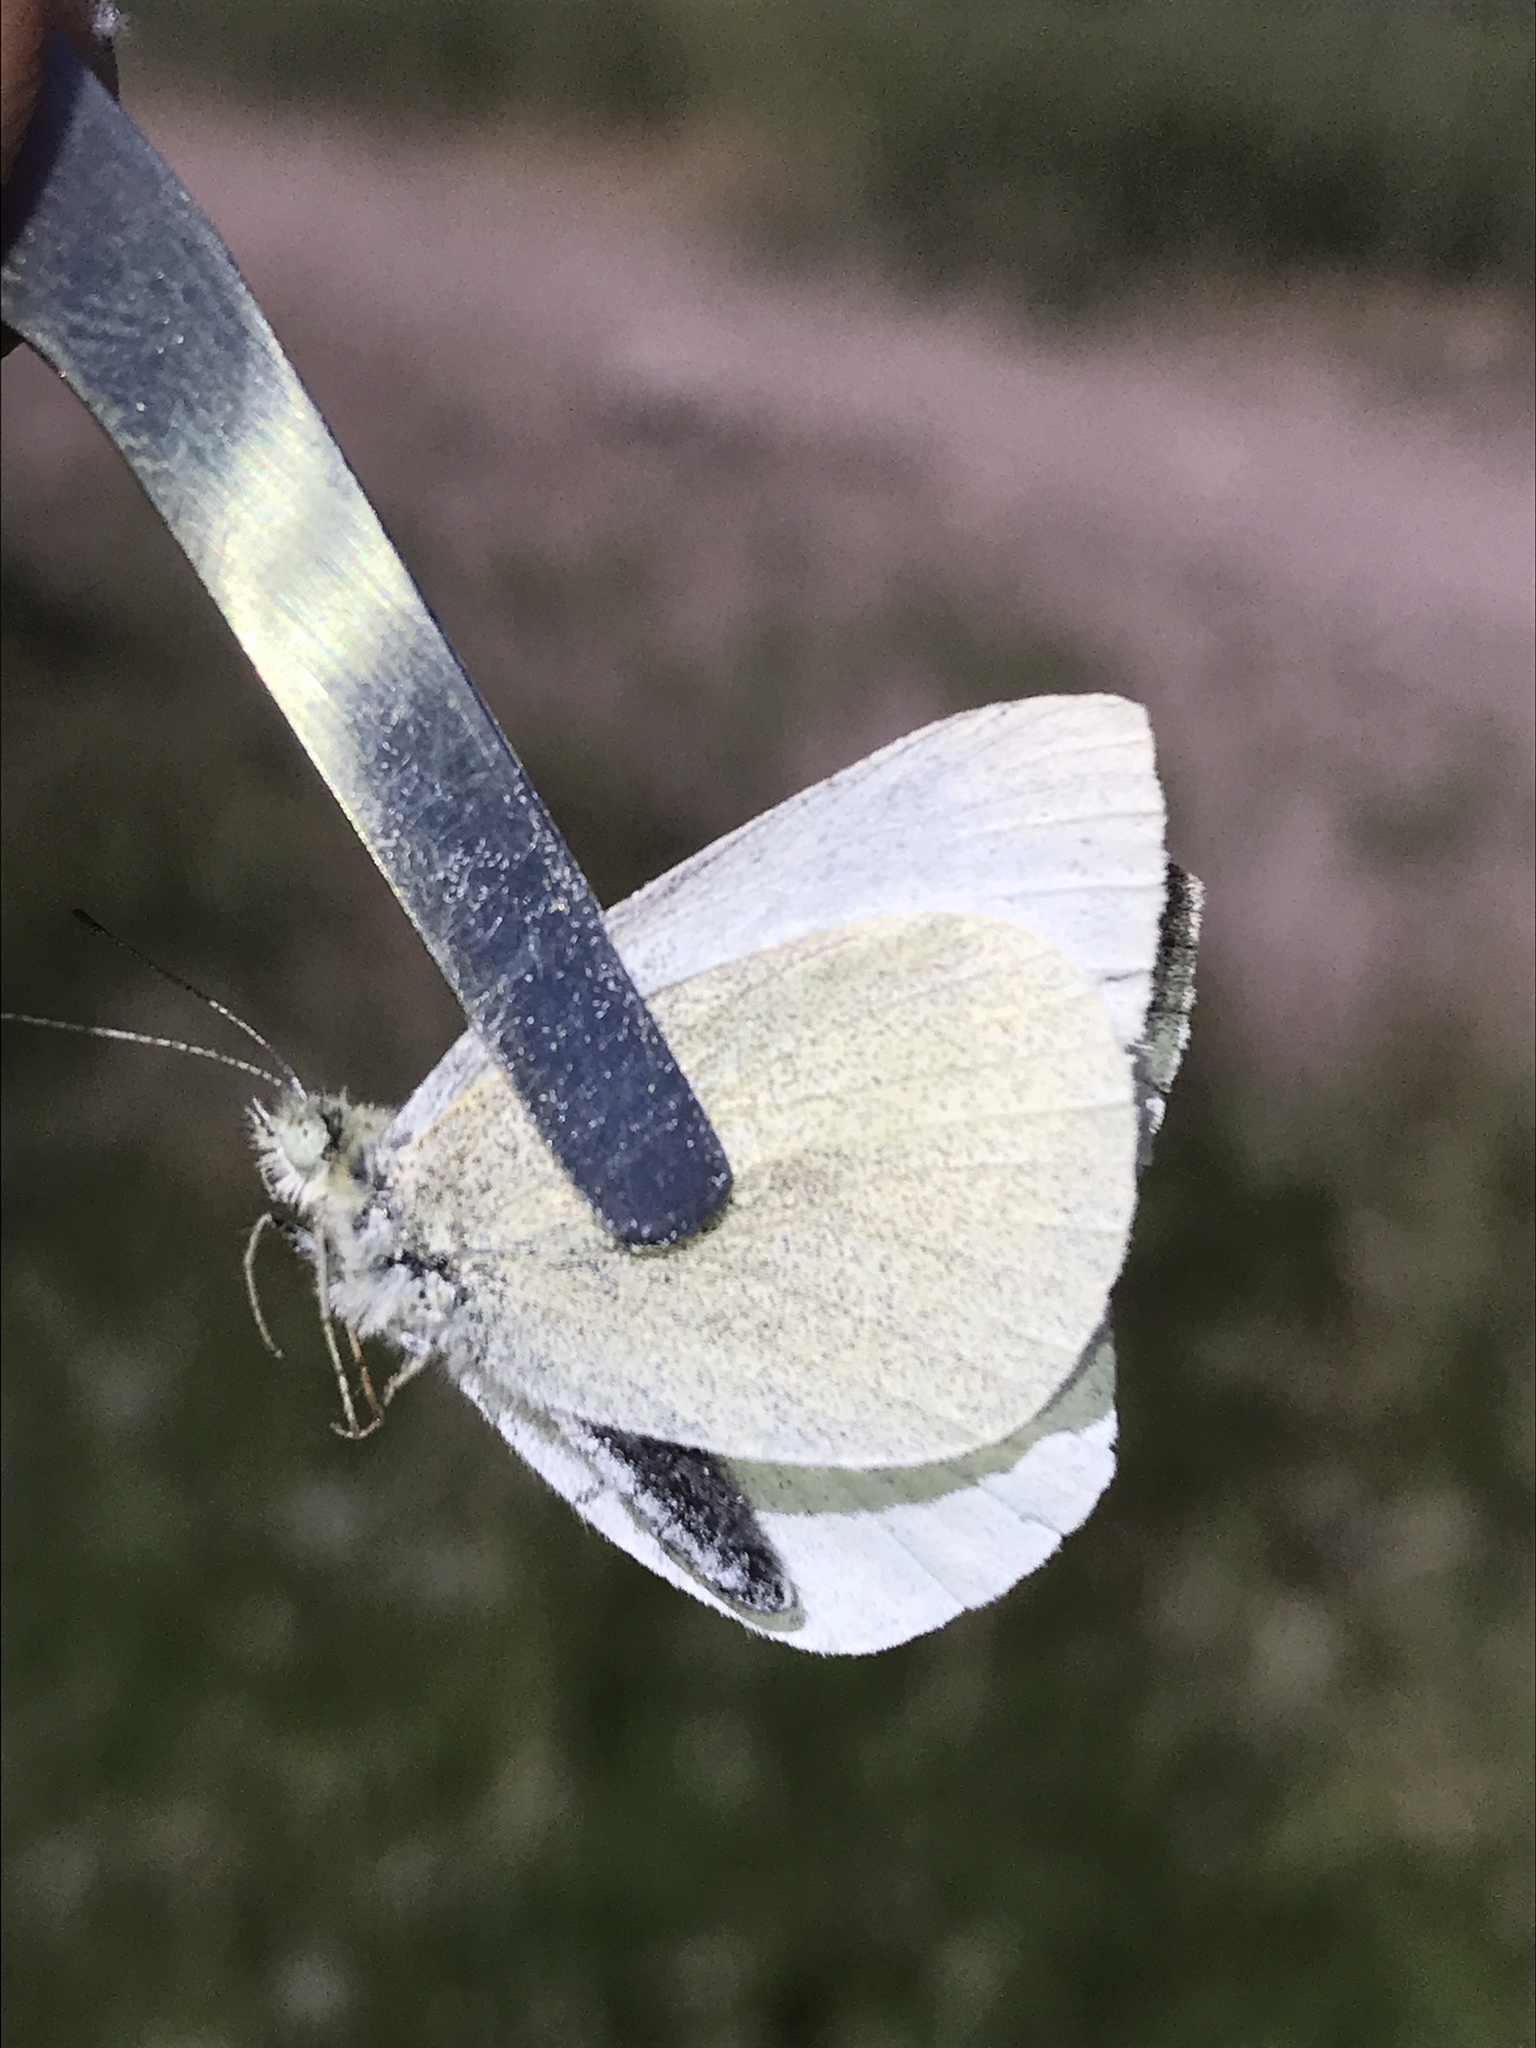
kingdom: Animalia
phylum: Arthropoda
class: Insecta
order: Lepidoptera
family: Pieridae
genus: Pieris
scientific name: Pieris rapae
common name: Small white
